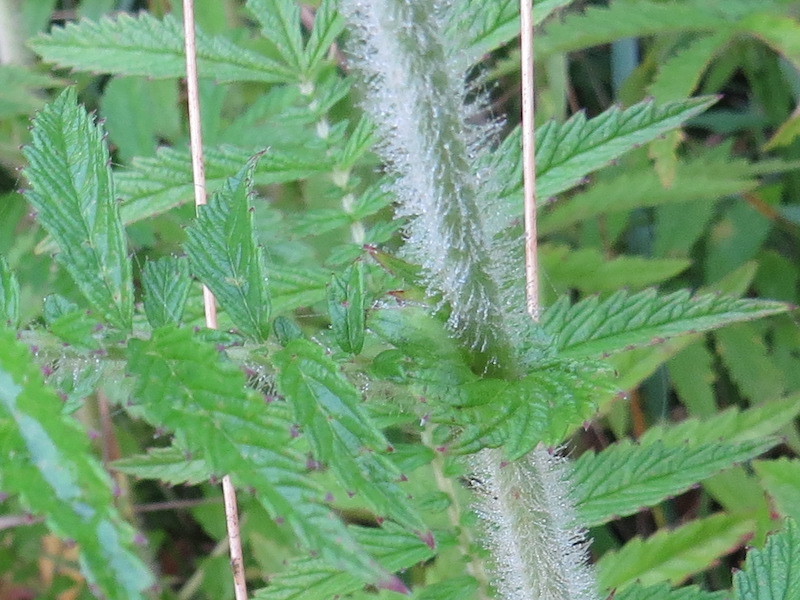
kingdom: Plantae
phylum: Tracheophyta
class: Magnoliopsida
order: Rosales
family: Rosaceae
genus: Agrimonia
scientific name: Agrimonia parviflora
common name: Harvest-lice
